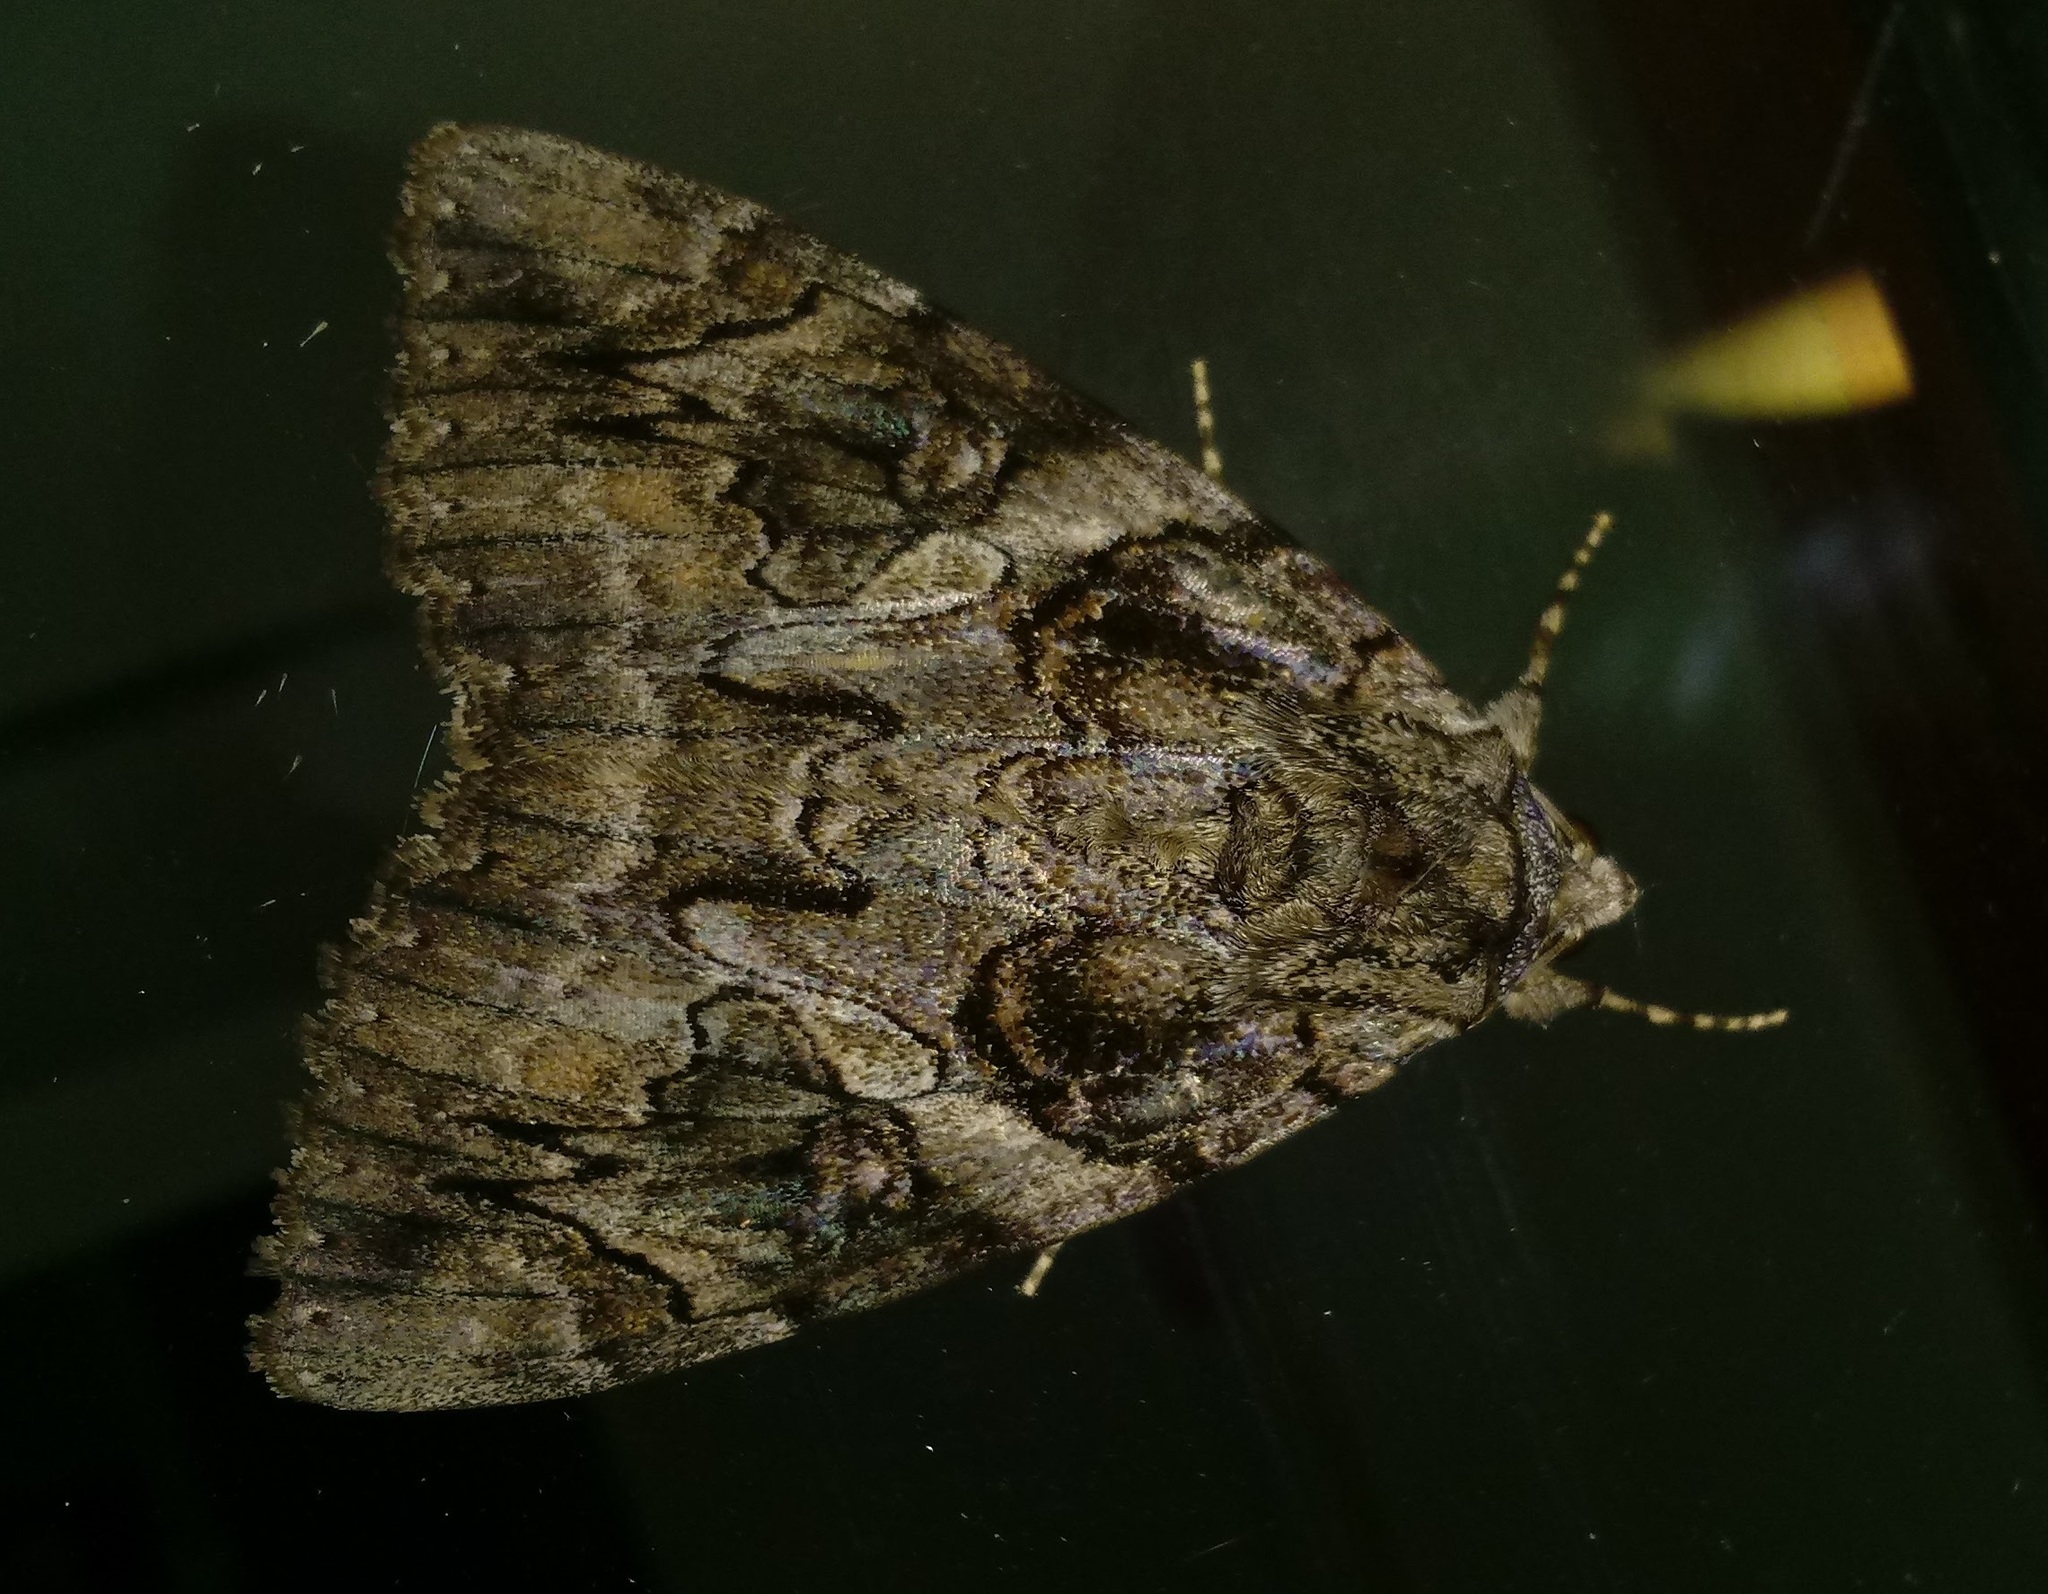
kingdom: Animalia
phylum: Arthropoda
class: Insecta
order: Lepidoptera
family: Erebidae
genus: Catocala
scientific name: Catocala piatrix
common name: The penitent underwing
